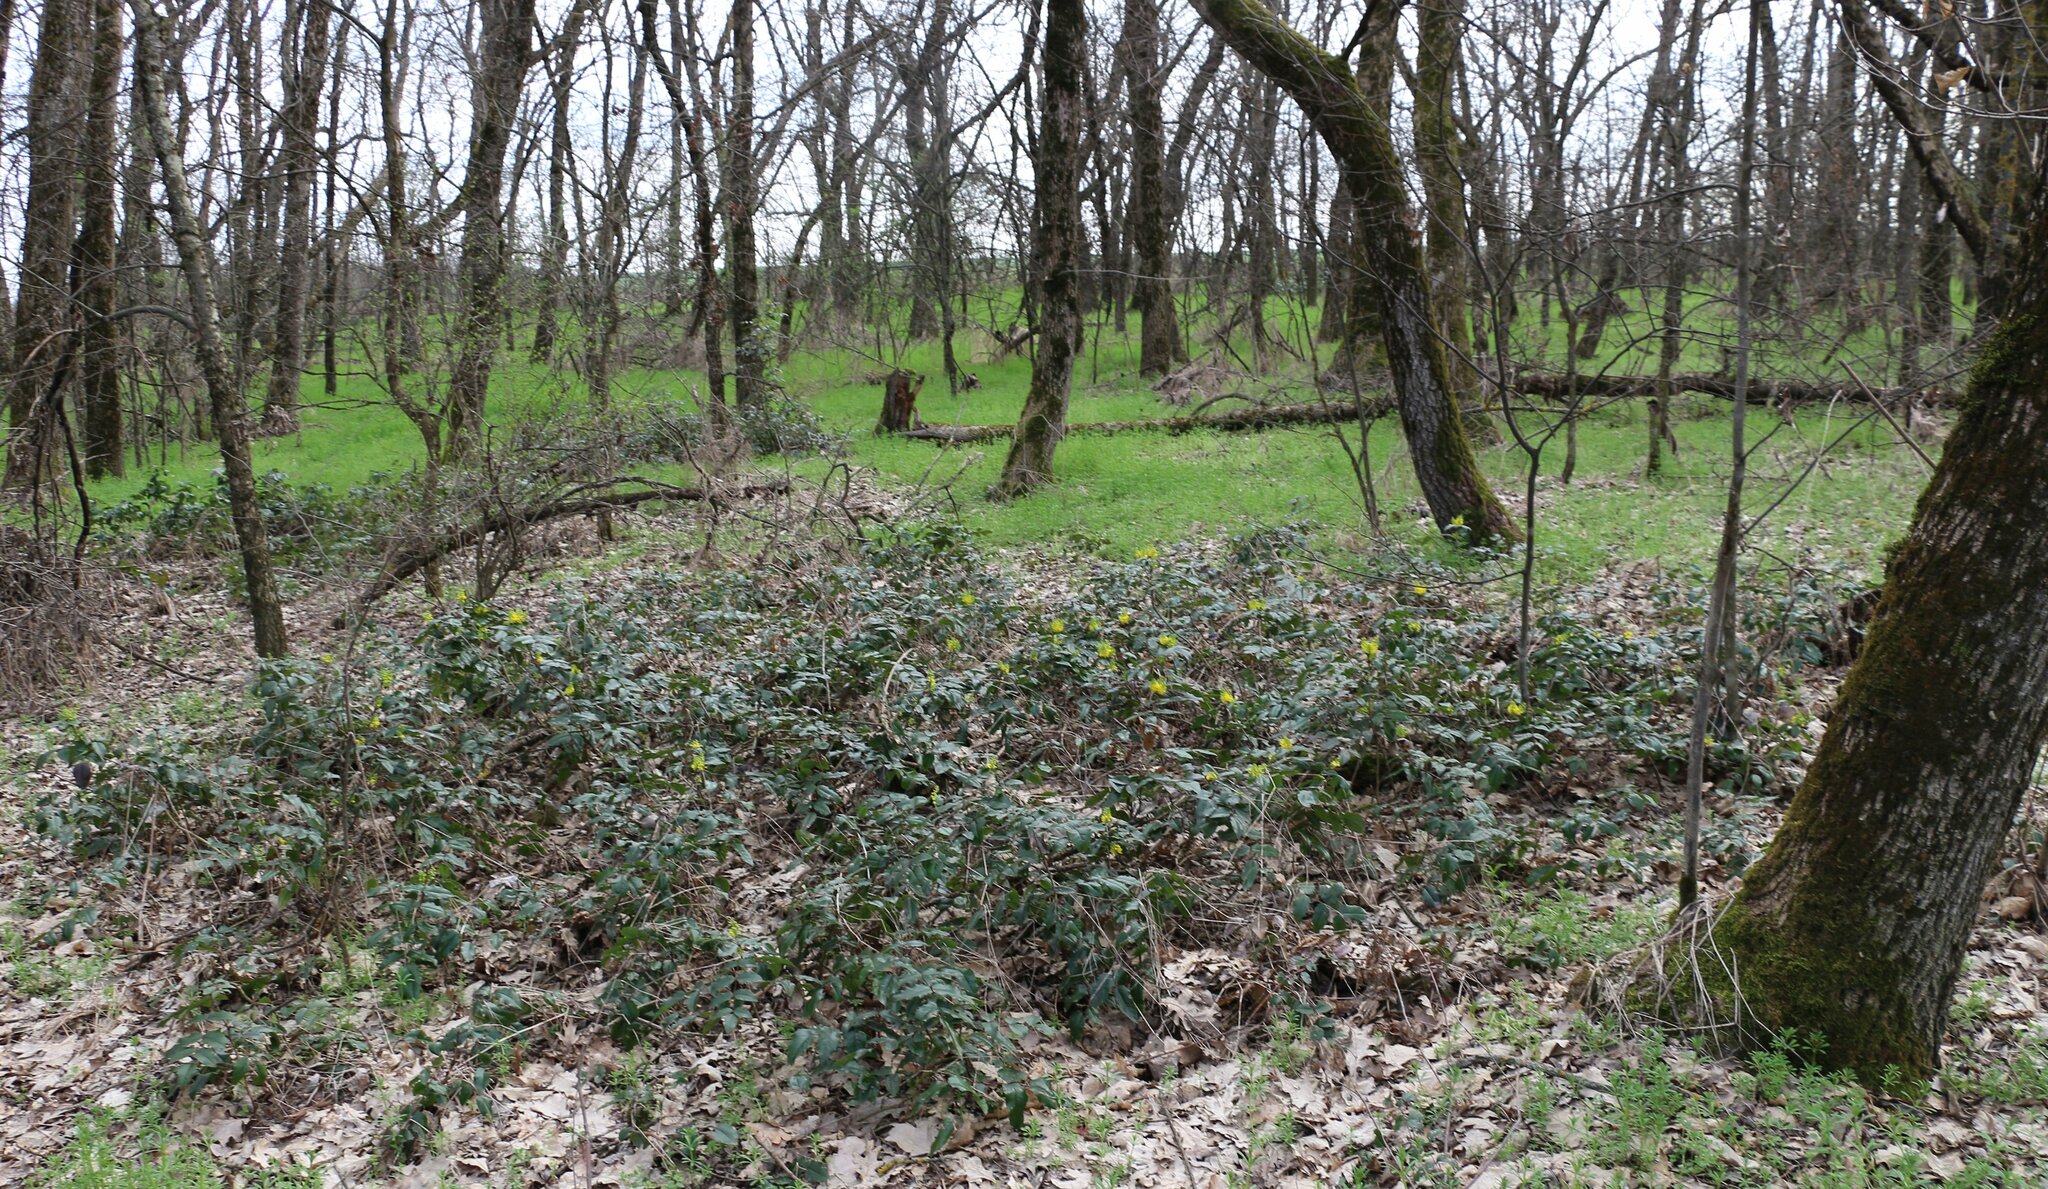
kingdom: Plantae
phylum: Tracheophyta
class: Magnoliopsida
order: Ranunculales
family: Berberidaceae
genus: Mahonia
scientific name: Mahonia aquifolium
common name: Oregon-grape
